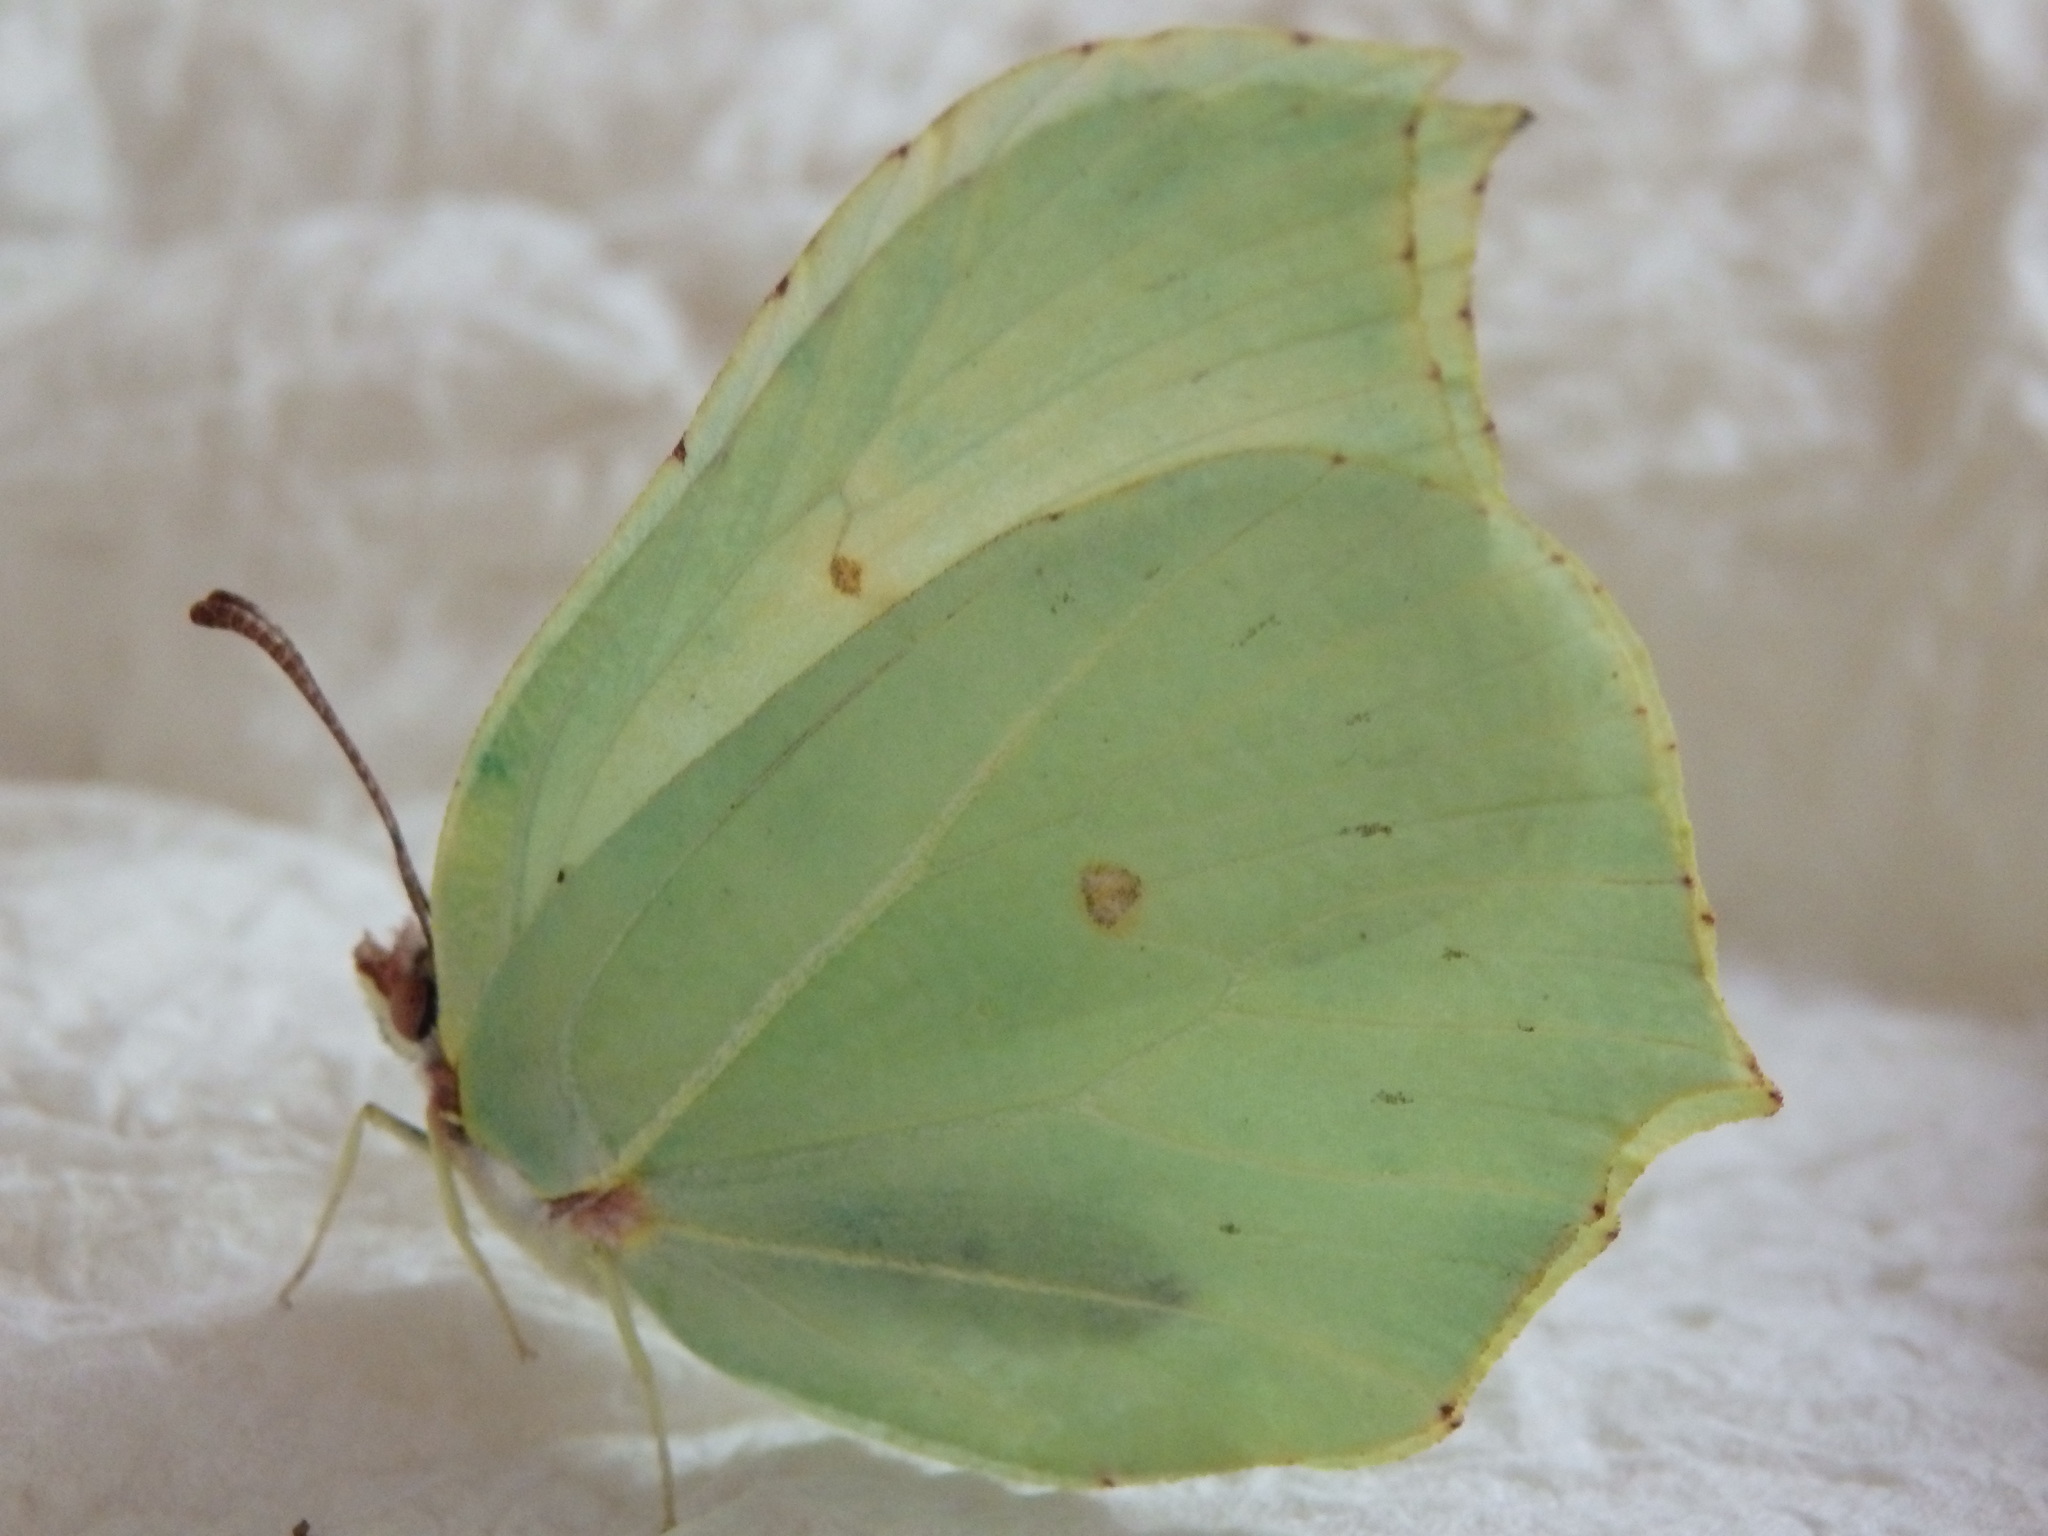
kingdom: Animalia
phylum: Arthropoda
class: Insecta
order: Lepidoptera
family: Pieridae
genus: Gonepteryx
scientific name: Gonepteryx rhamni
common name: Brimstone
